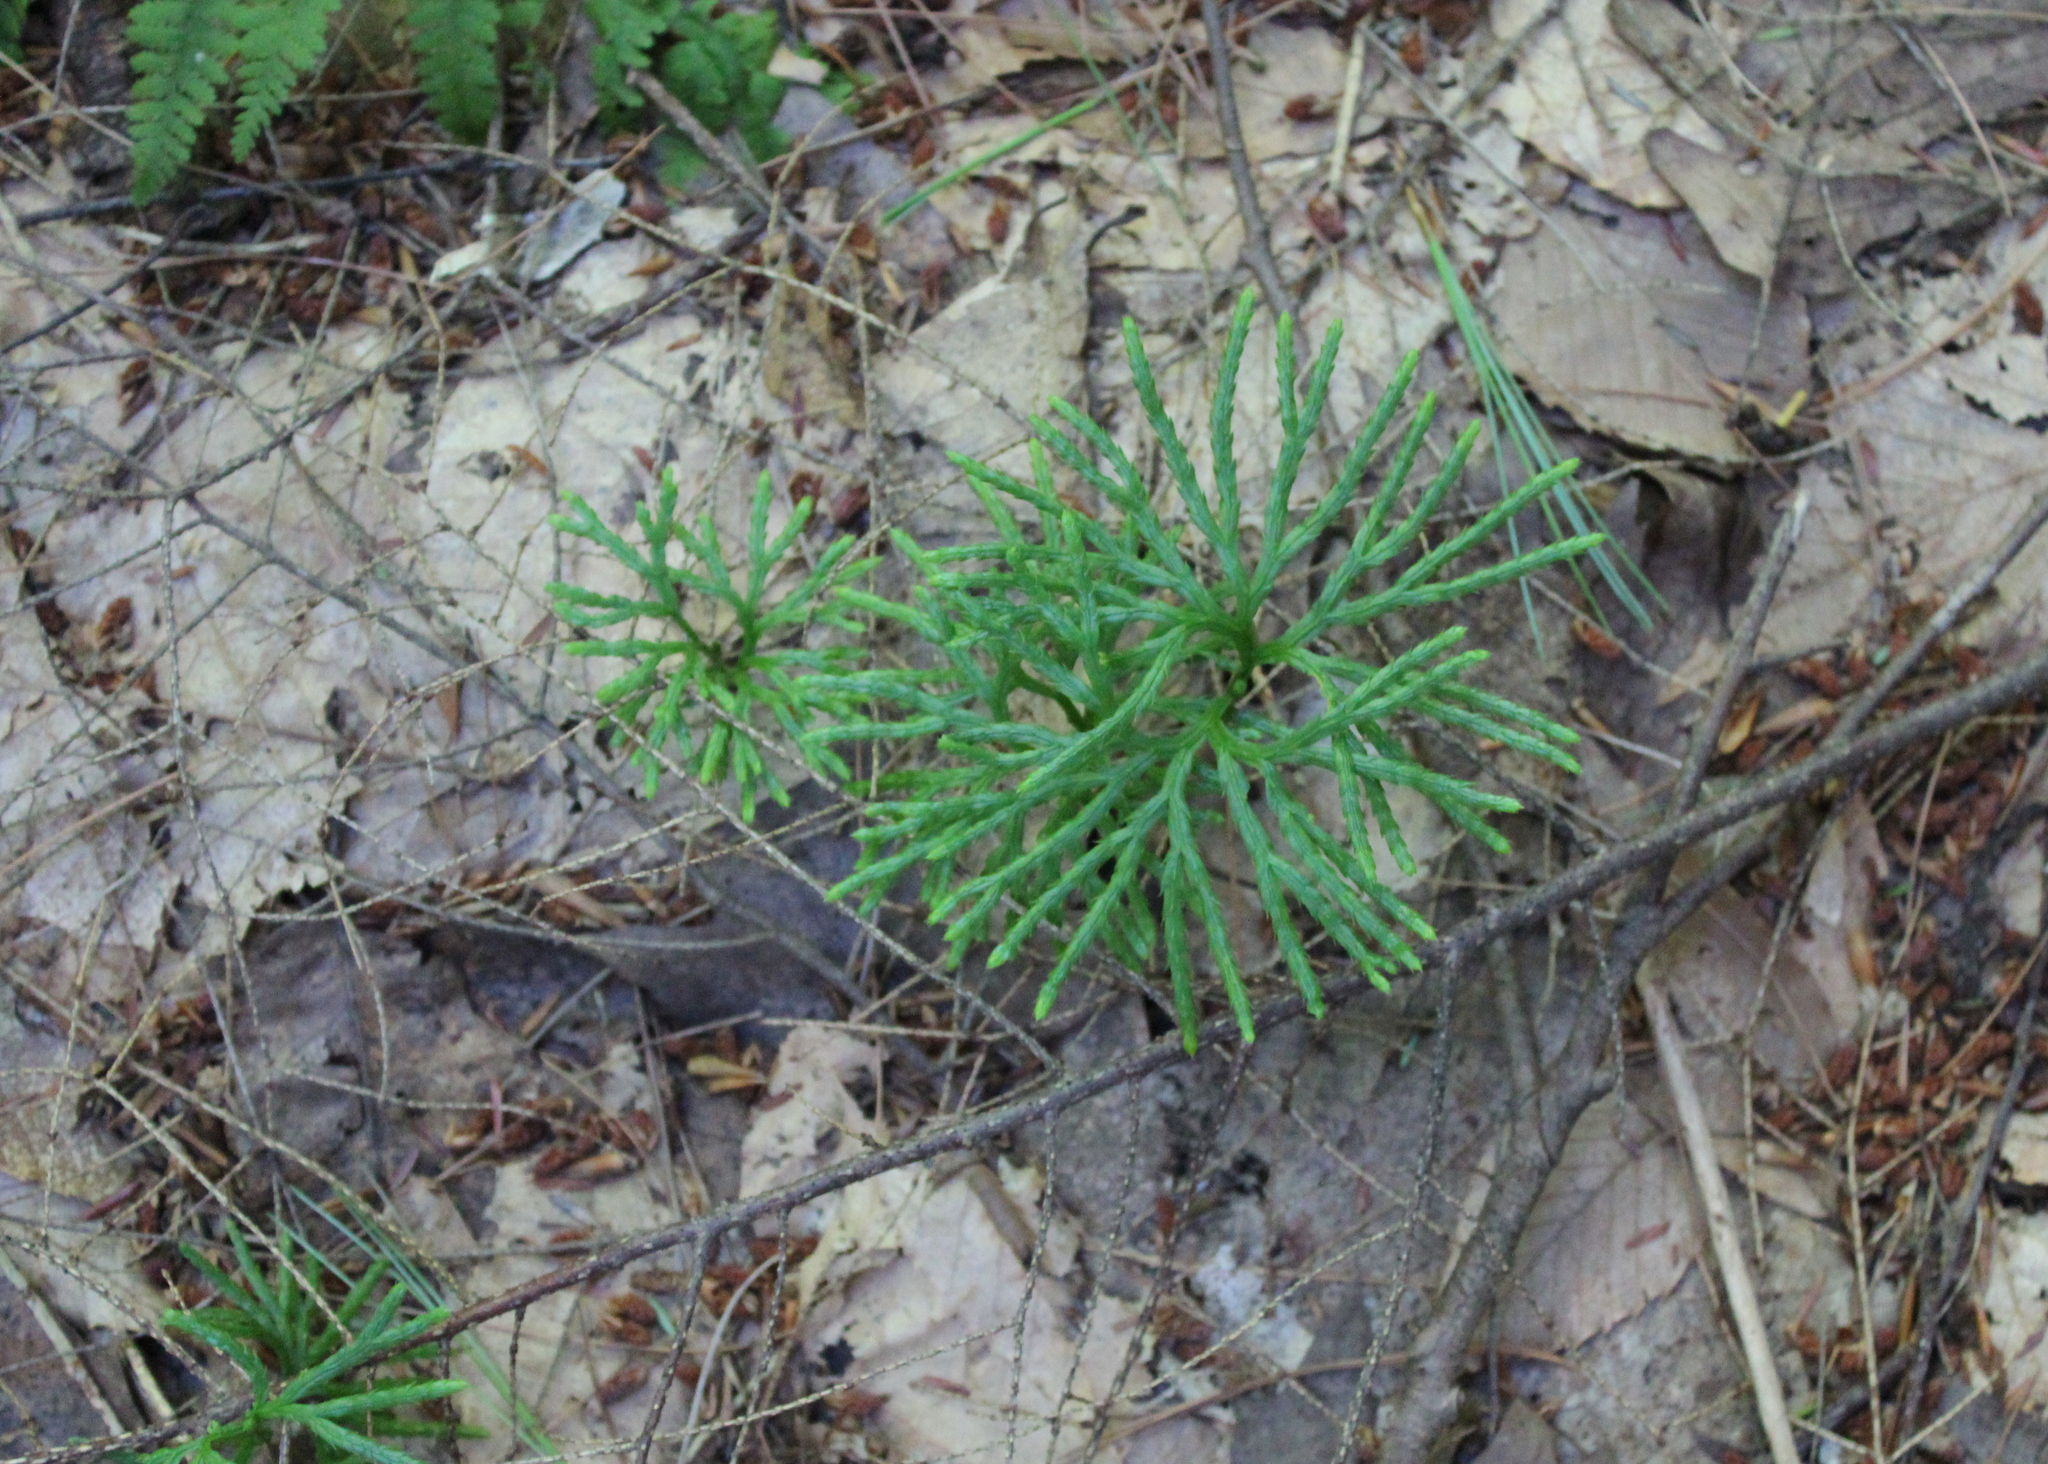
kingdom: Plantae
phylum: Tracheophyta
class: Lycopodiopsida
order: Lycopodiales
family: Lycopodiaceae
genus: Diphasiastrum
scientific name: Diphasiastrum digitatum
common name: Southern running-pine
